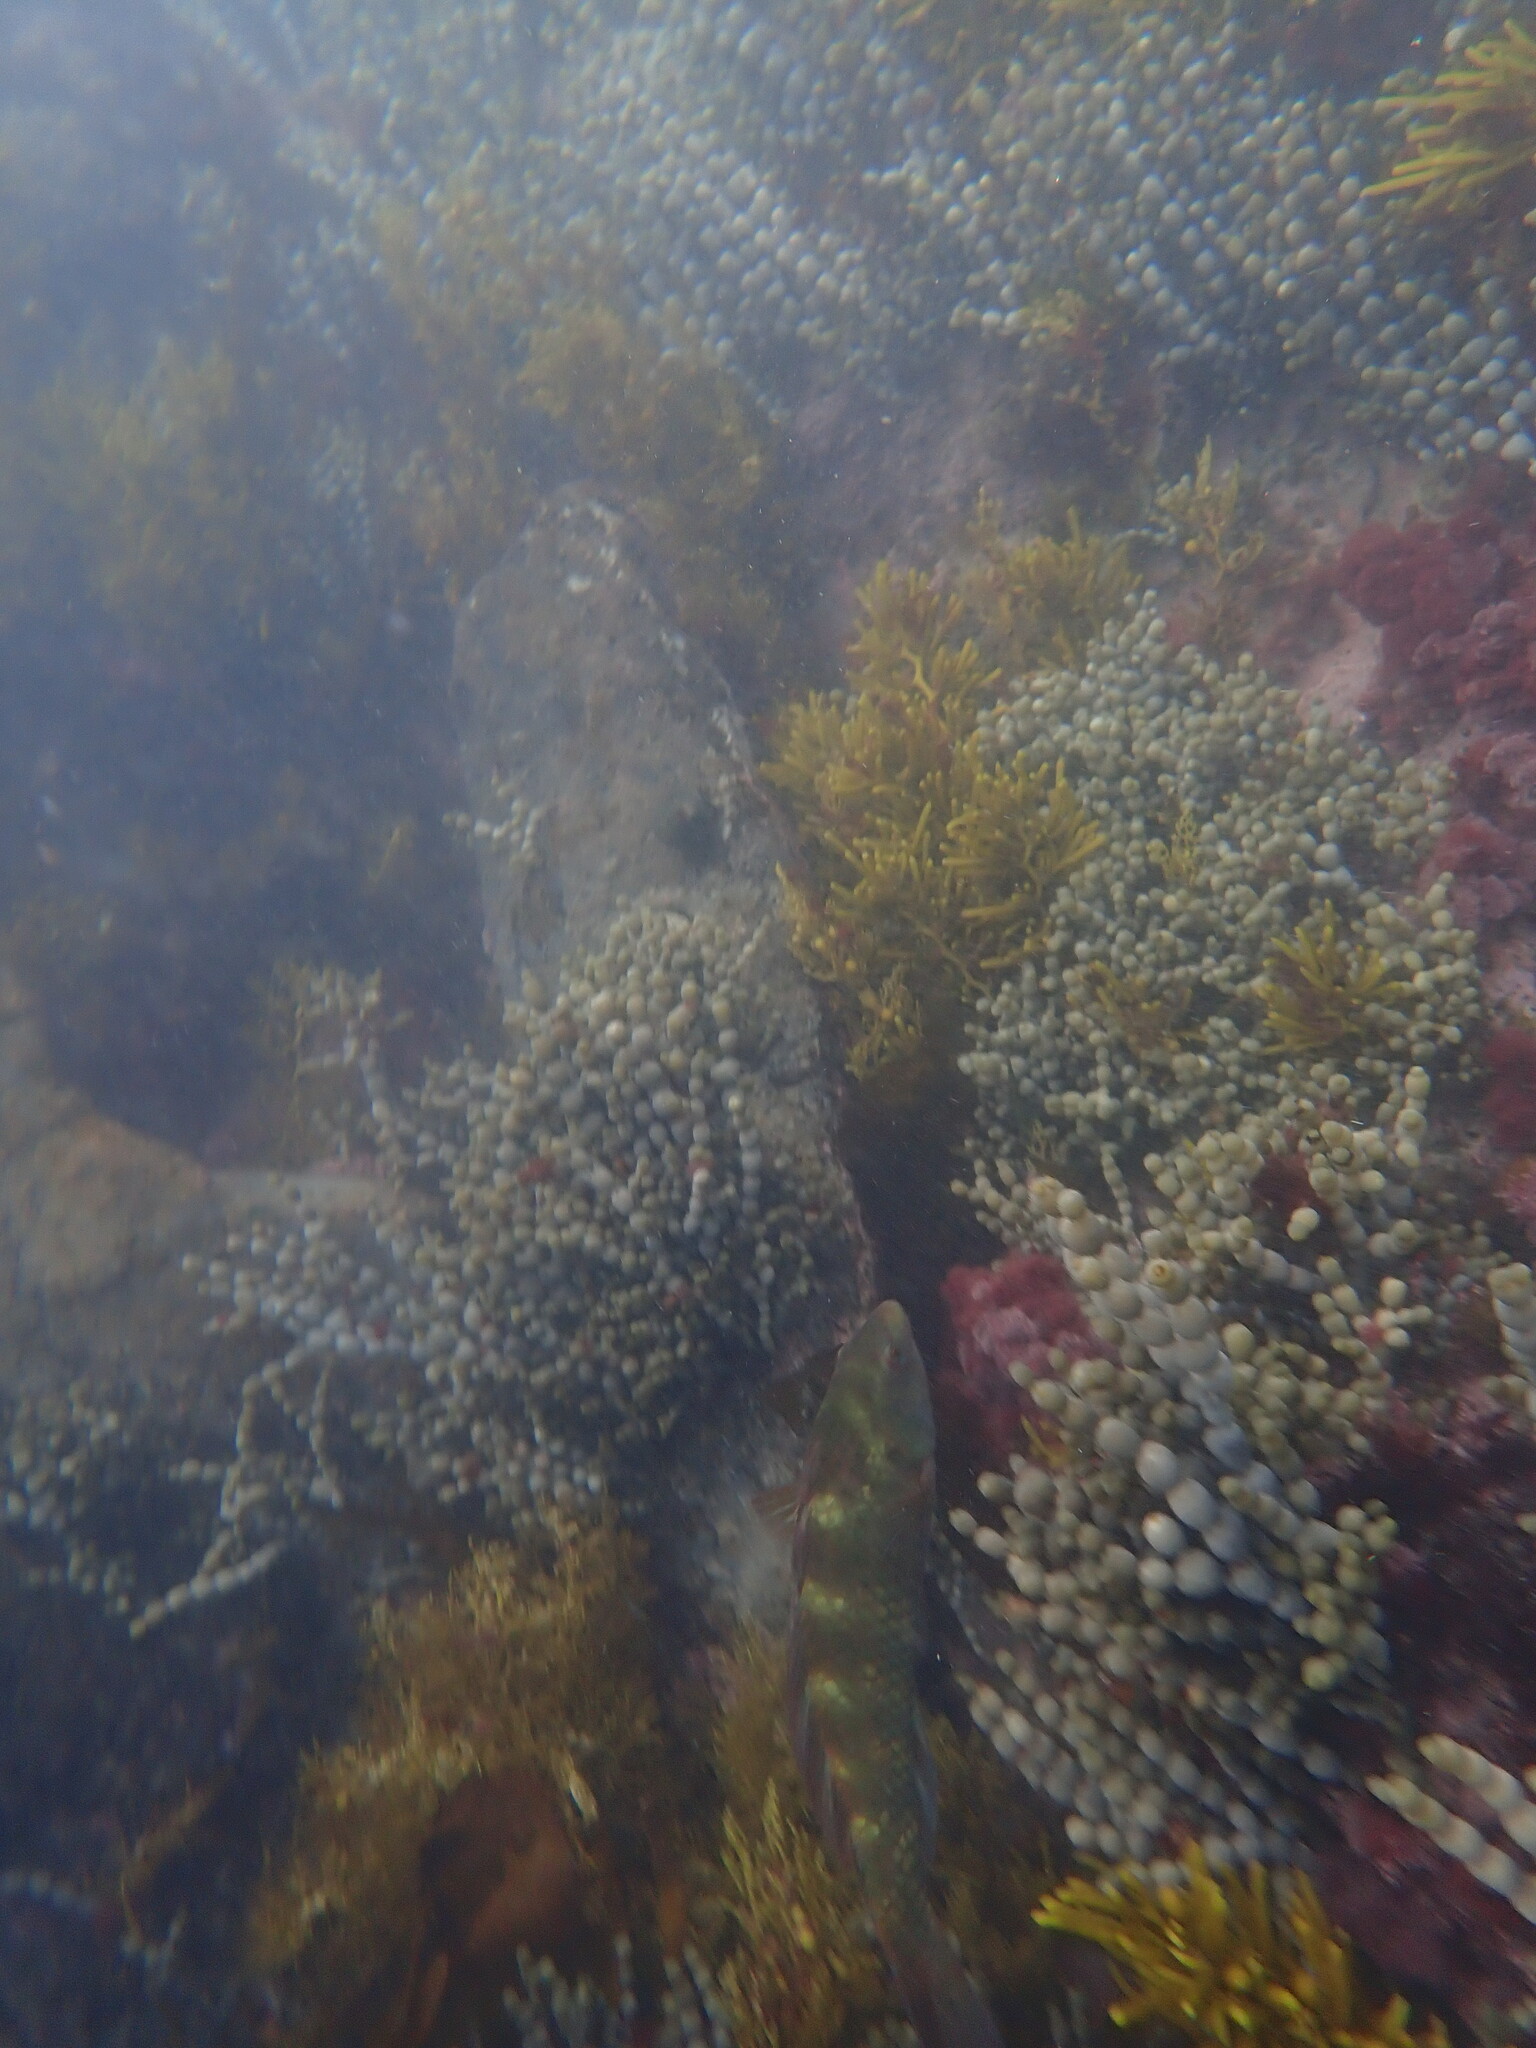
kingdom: Chromista
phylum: Ochrophyta
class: Phaeophyceae
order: Fucales
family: Hormosiraceae
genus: Hormosira
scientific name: Hormosira banksii
